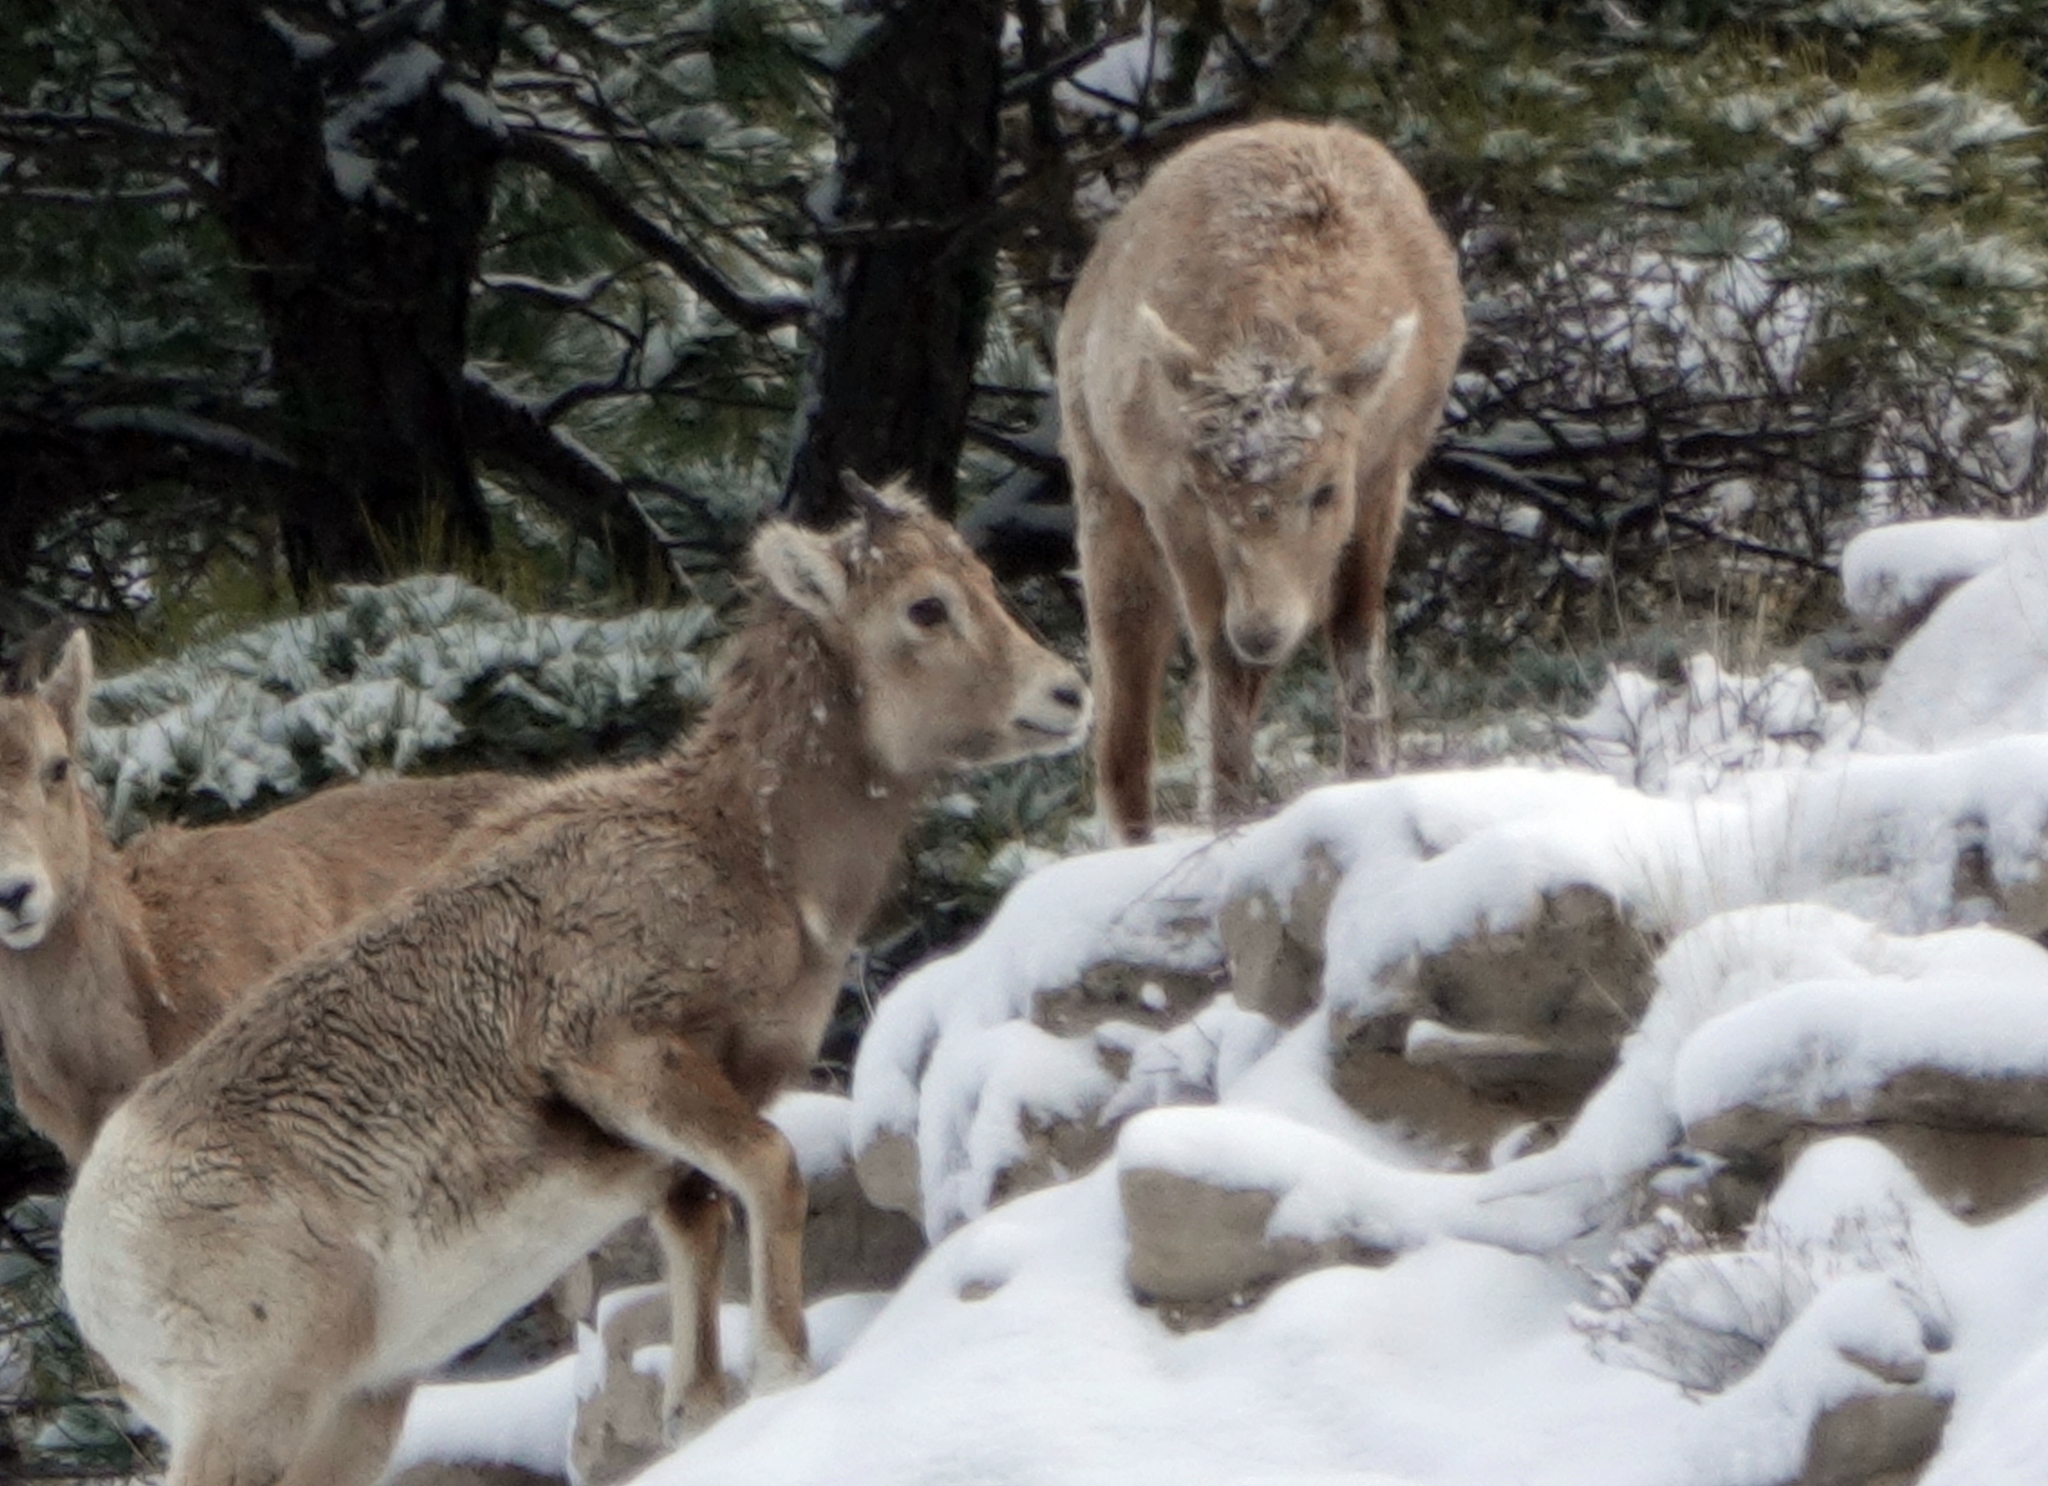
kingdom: Animalia
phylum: Chordata
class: Mammalia
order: Artiodactyla
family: Bovidae
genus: Ovis
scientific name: Ovis canadensis
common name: Bighorn sheep
